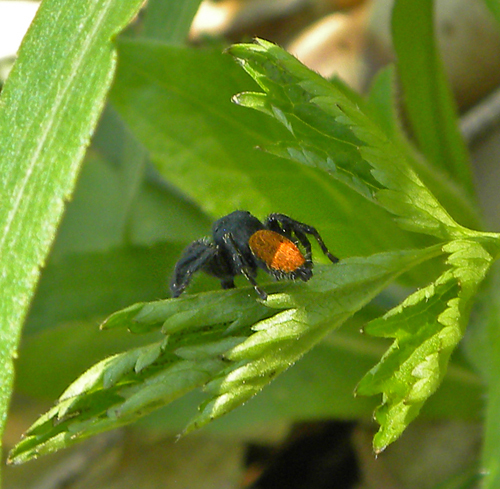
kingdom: Animalia
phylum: Arthropoda
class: Arachnida
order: Araneae
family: Salticidae
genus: Phidippus
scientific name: Phidippus princeps
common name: Grayish jumping spider
